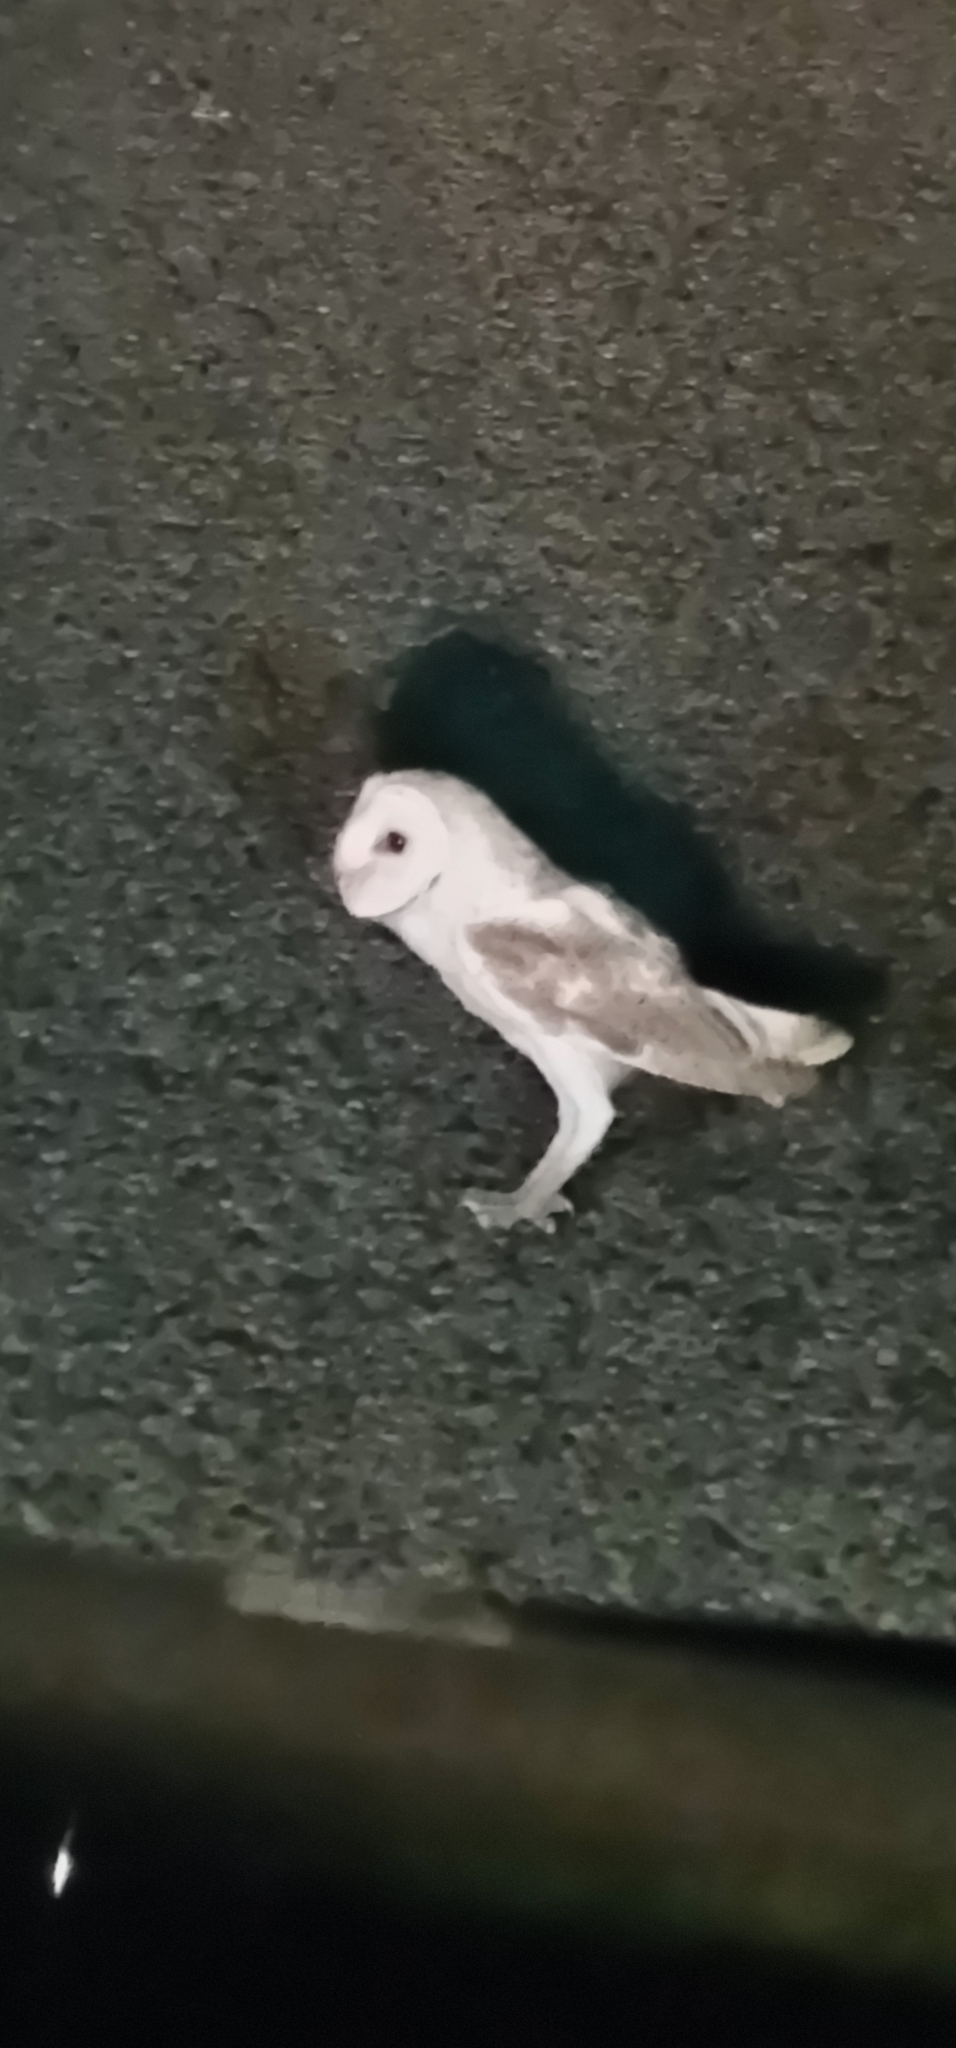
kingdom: Animalia
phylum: Chordata
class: Aves
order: Strigiformes
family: Tytonidae
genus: Tyto
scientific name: Tyto alba
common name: Barn owl
